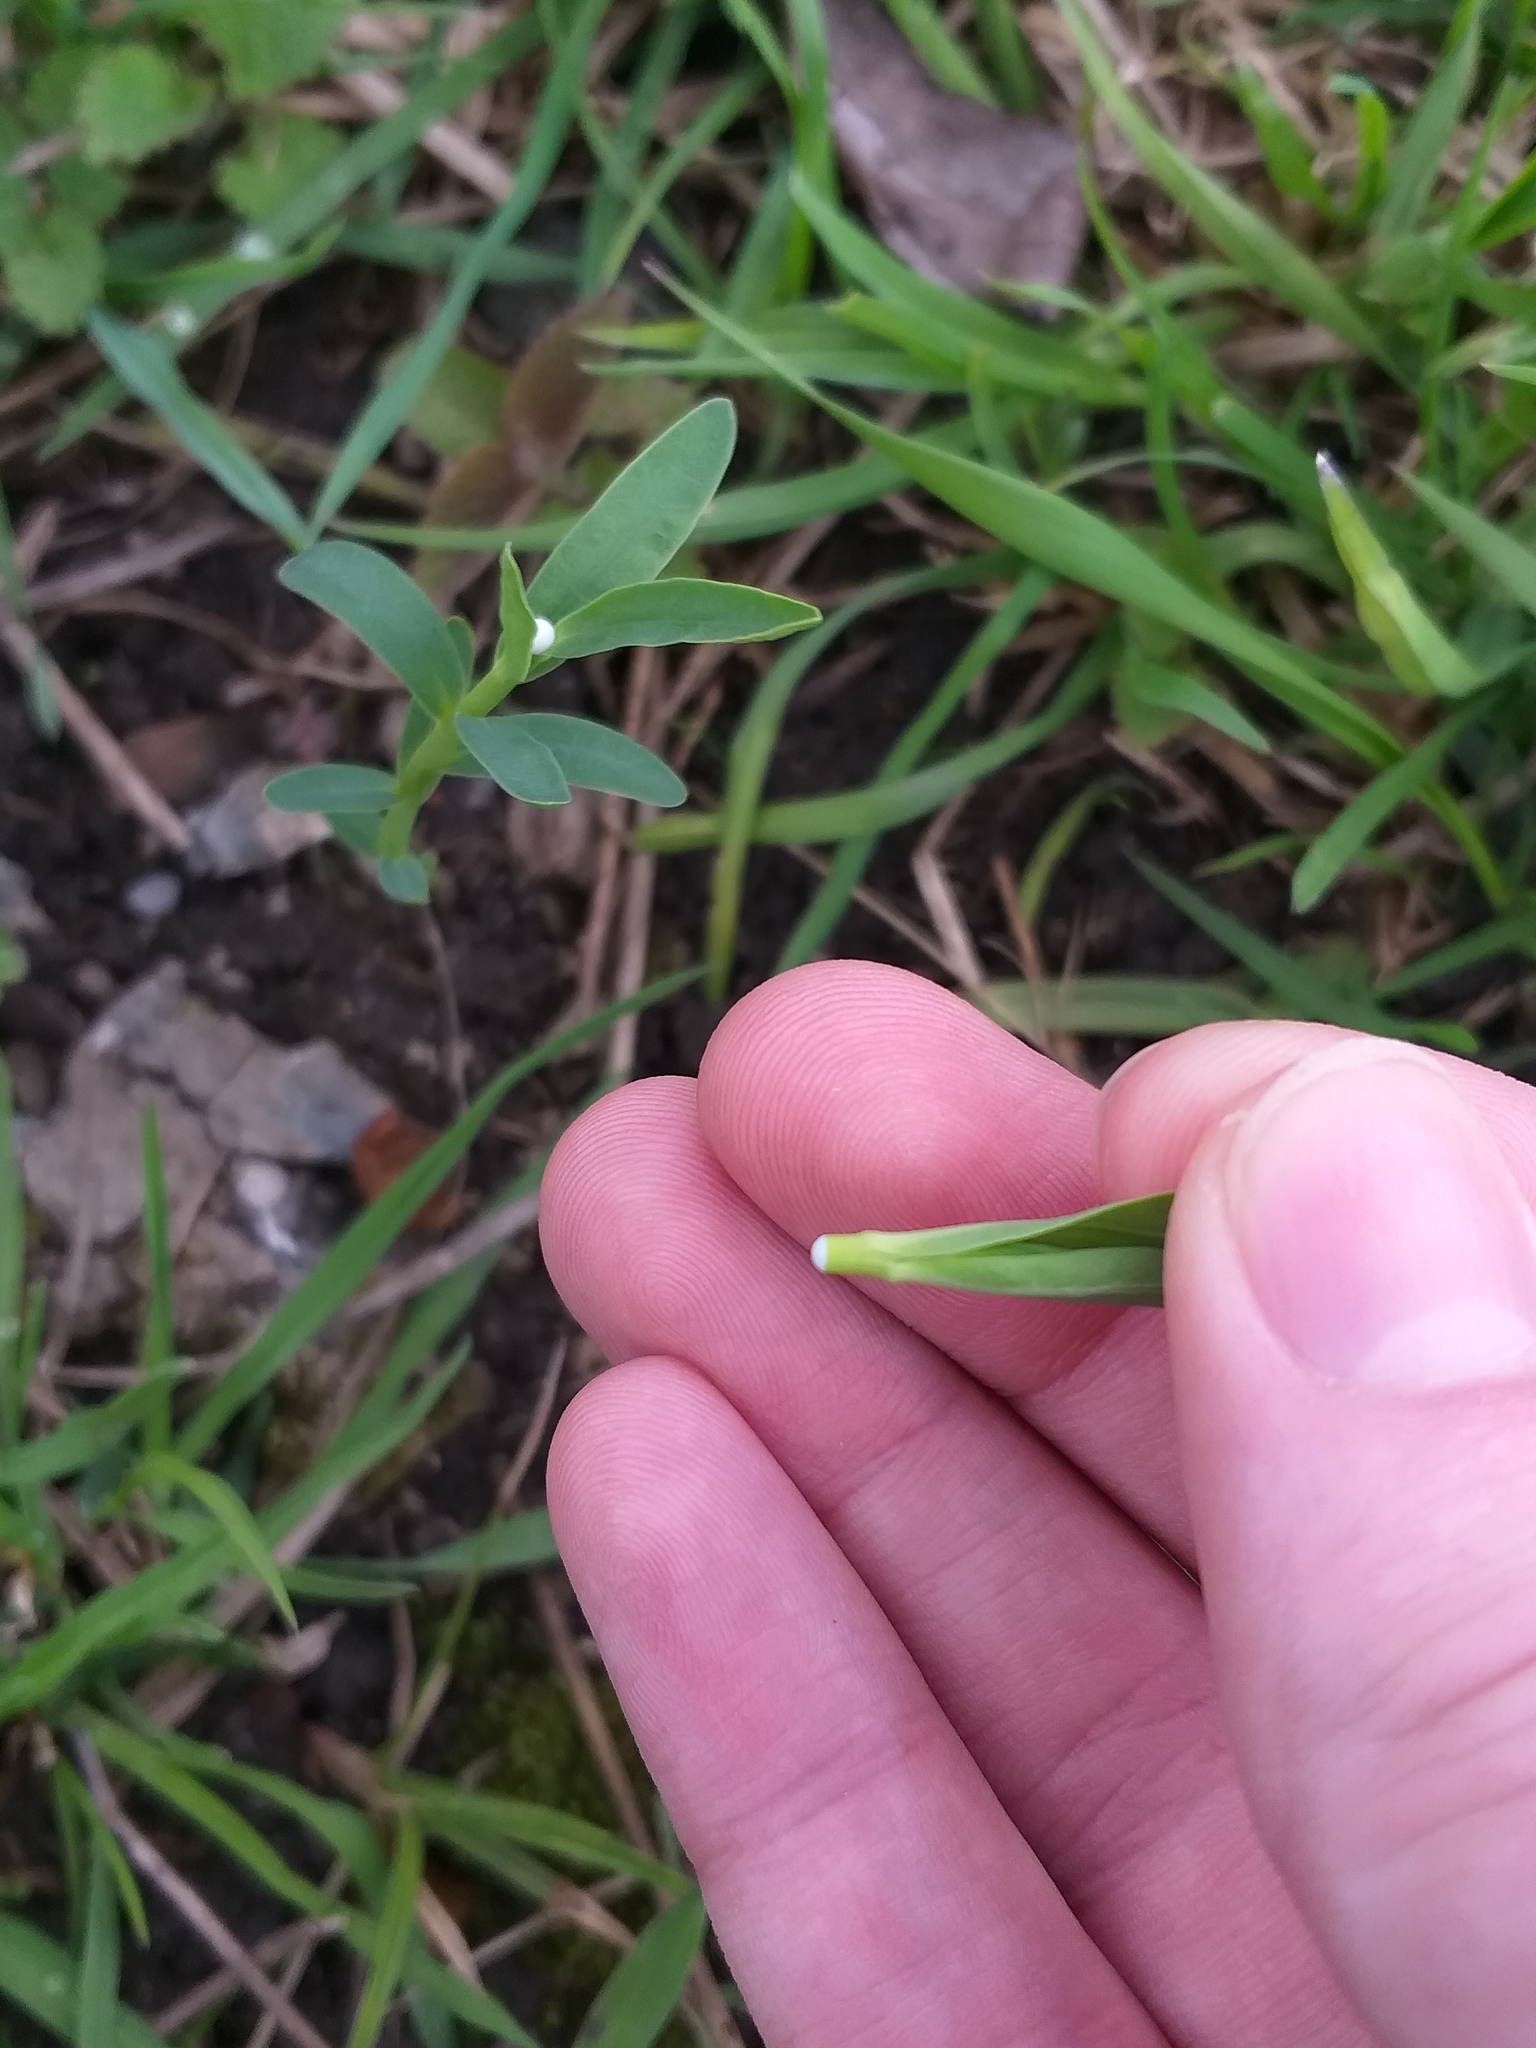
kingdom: Plantae
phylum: Tracheophyta
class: Magnoliopsida
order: Malpighiales
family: Euphorbiaceae
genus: Euphorbia
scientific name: Euphorbia virgata
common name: Leafy spurge
